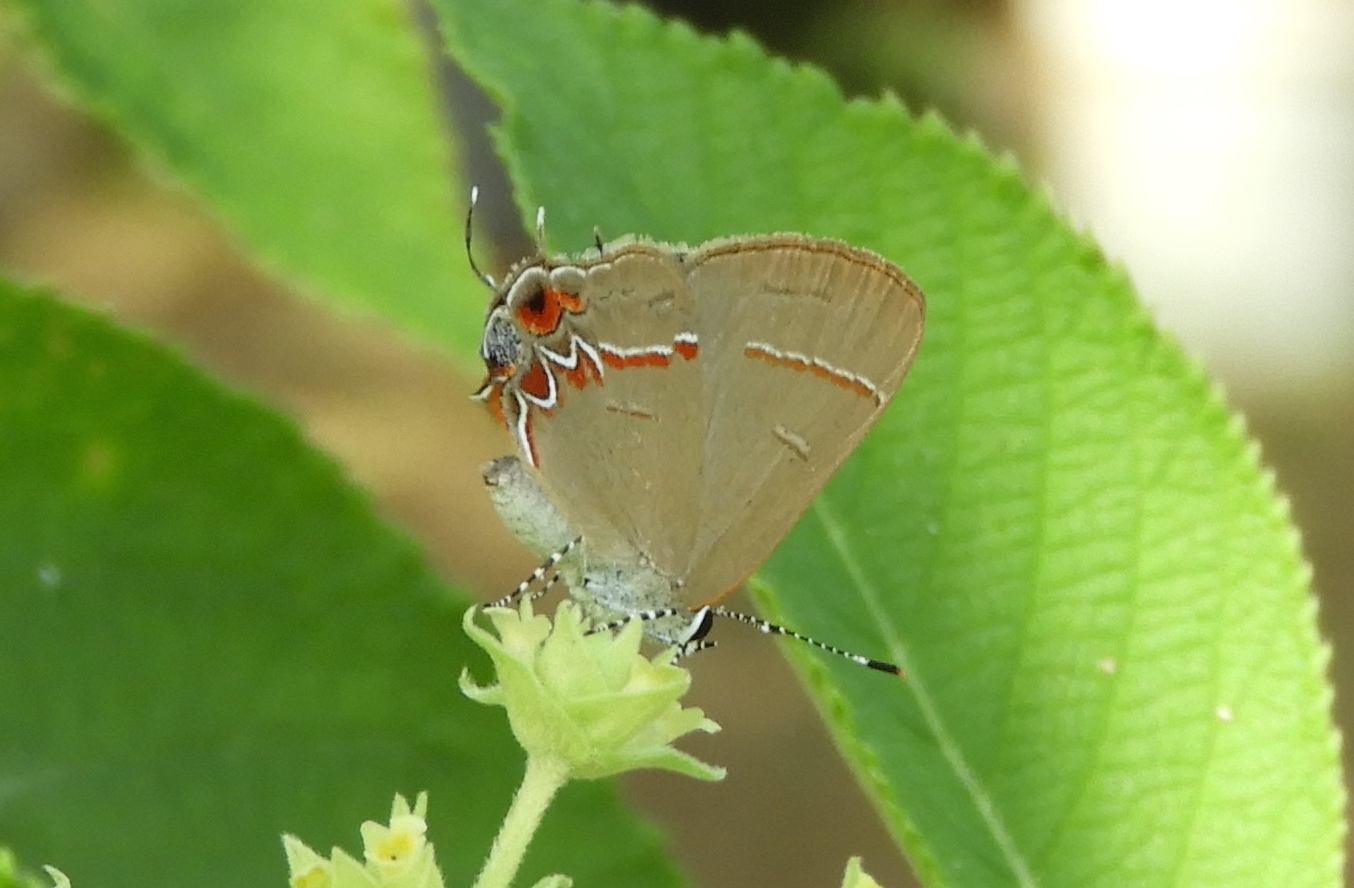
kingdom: Animalia
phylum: Arthropoda
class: Insecta
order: Lepidoptera
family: Lycaenidae
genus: Calycopis
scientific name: Calycopis
